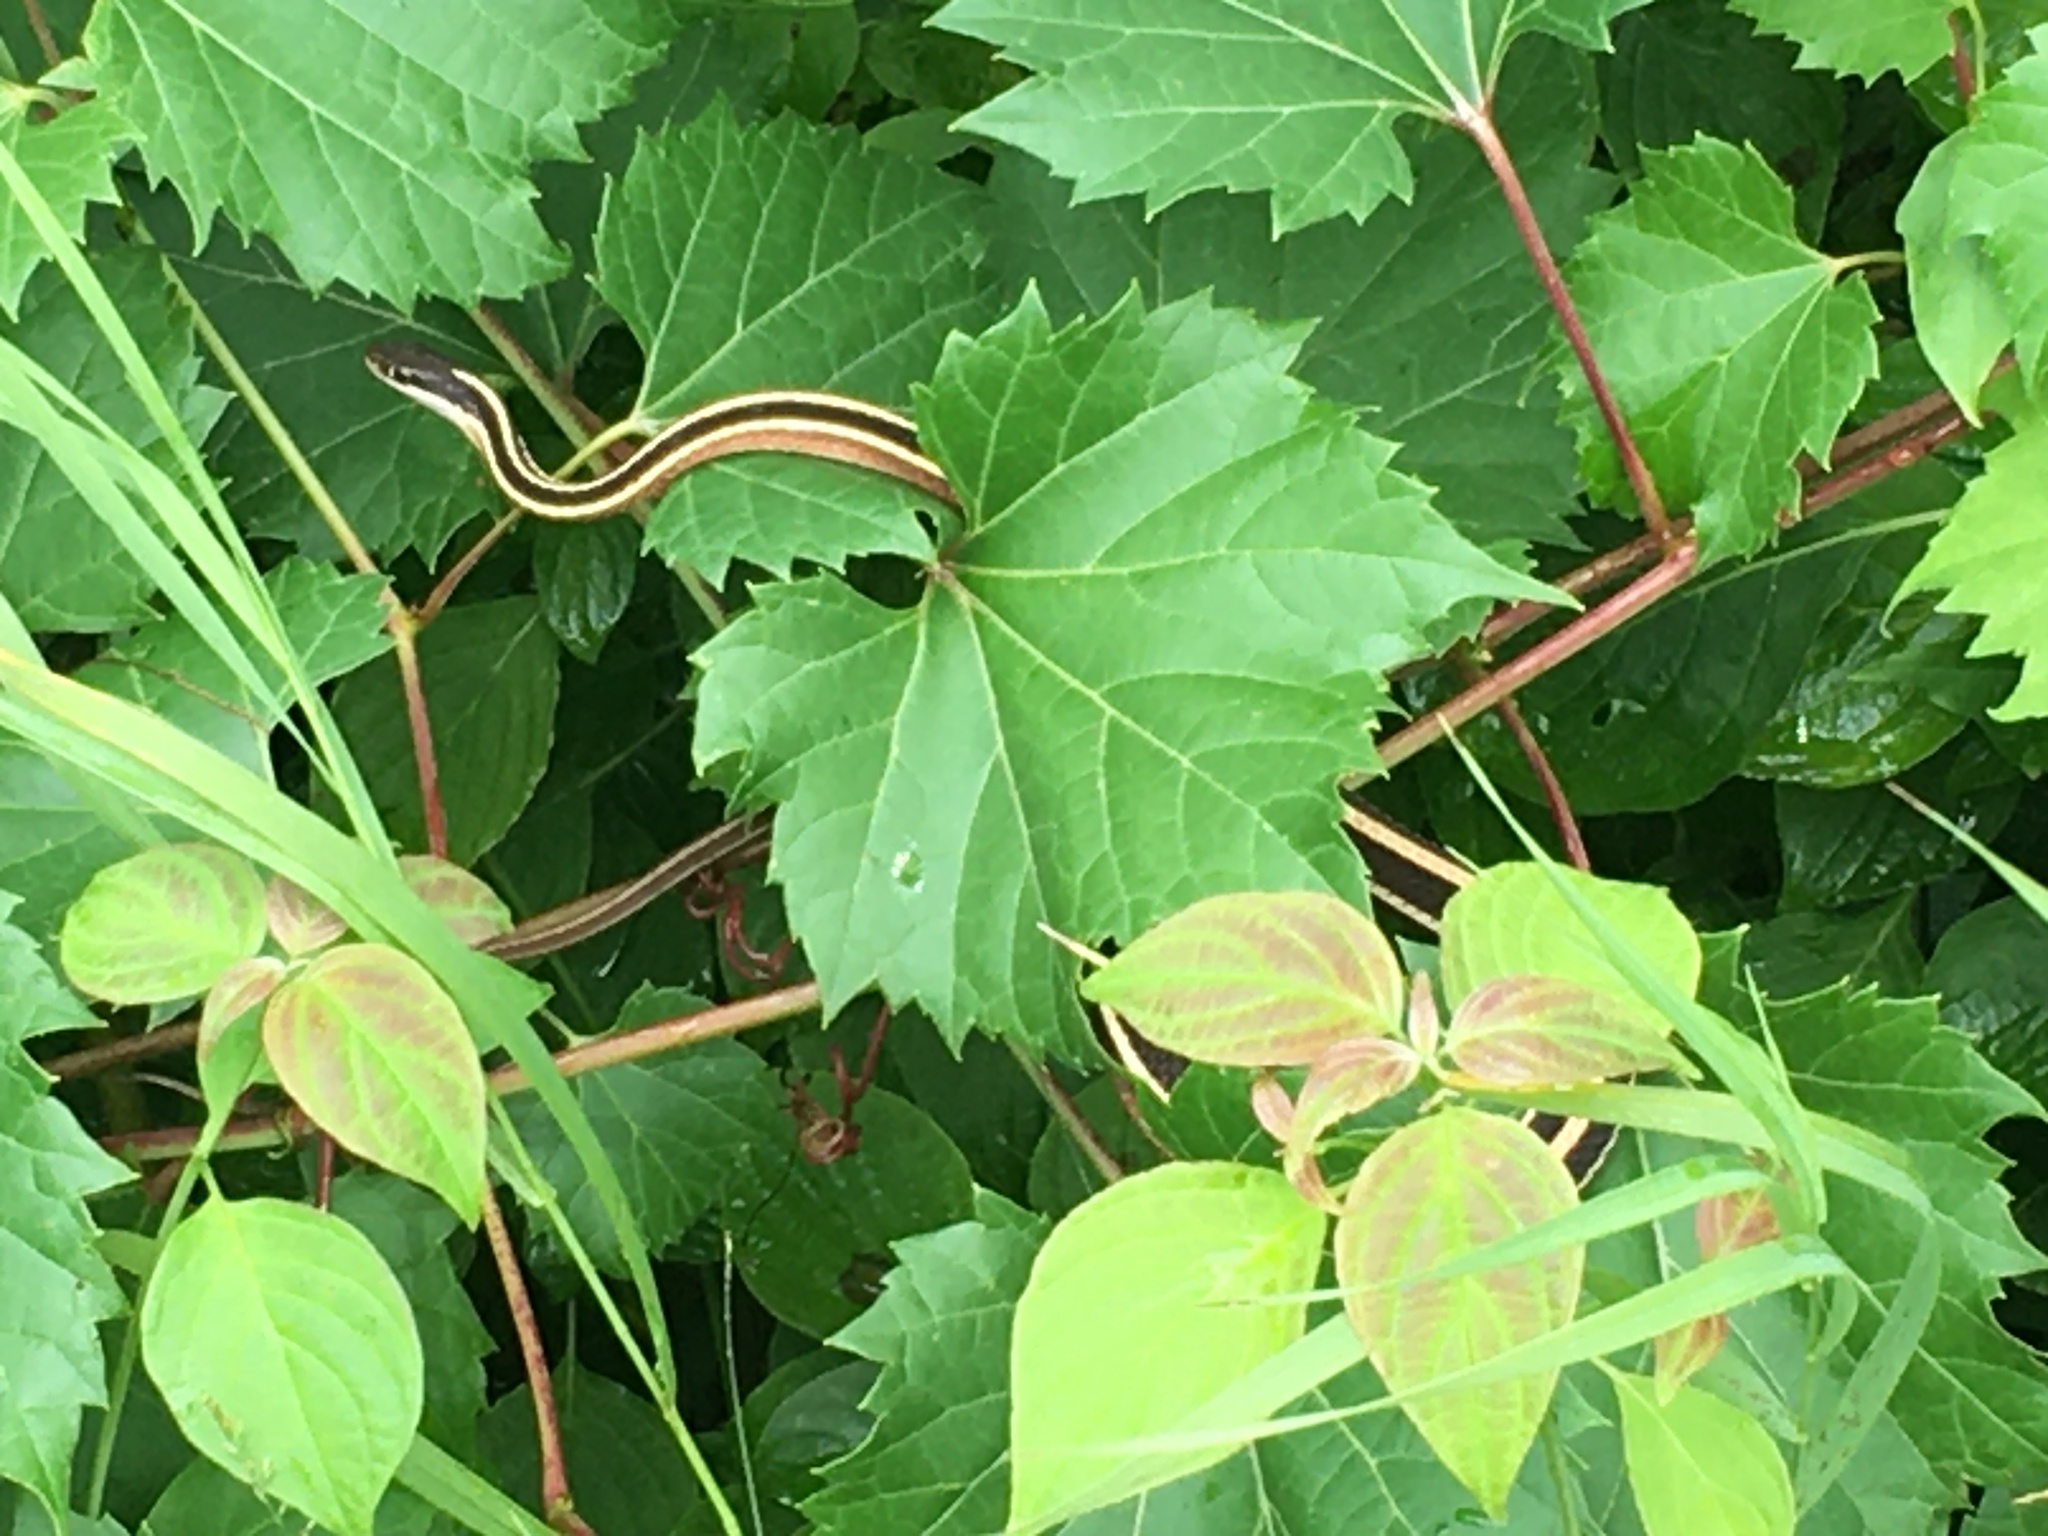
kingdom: Animalia
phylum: Chordata
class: Squamata
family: Colubridae
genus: Thamnophis
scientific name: Thamnophis saurita
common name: Eastern ribbonsnake
